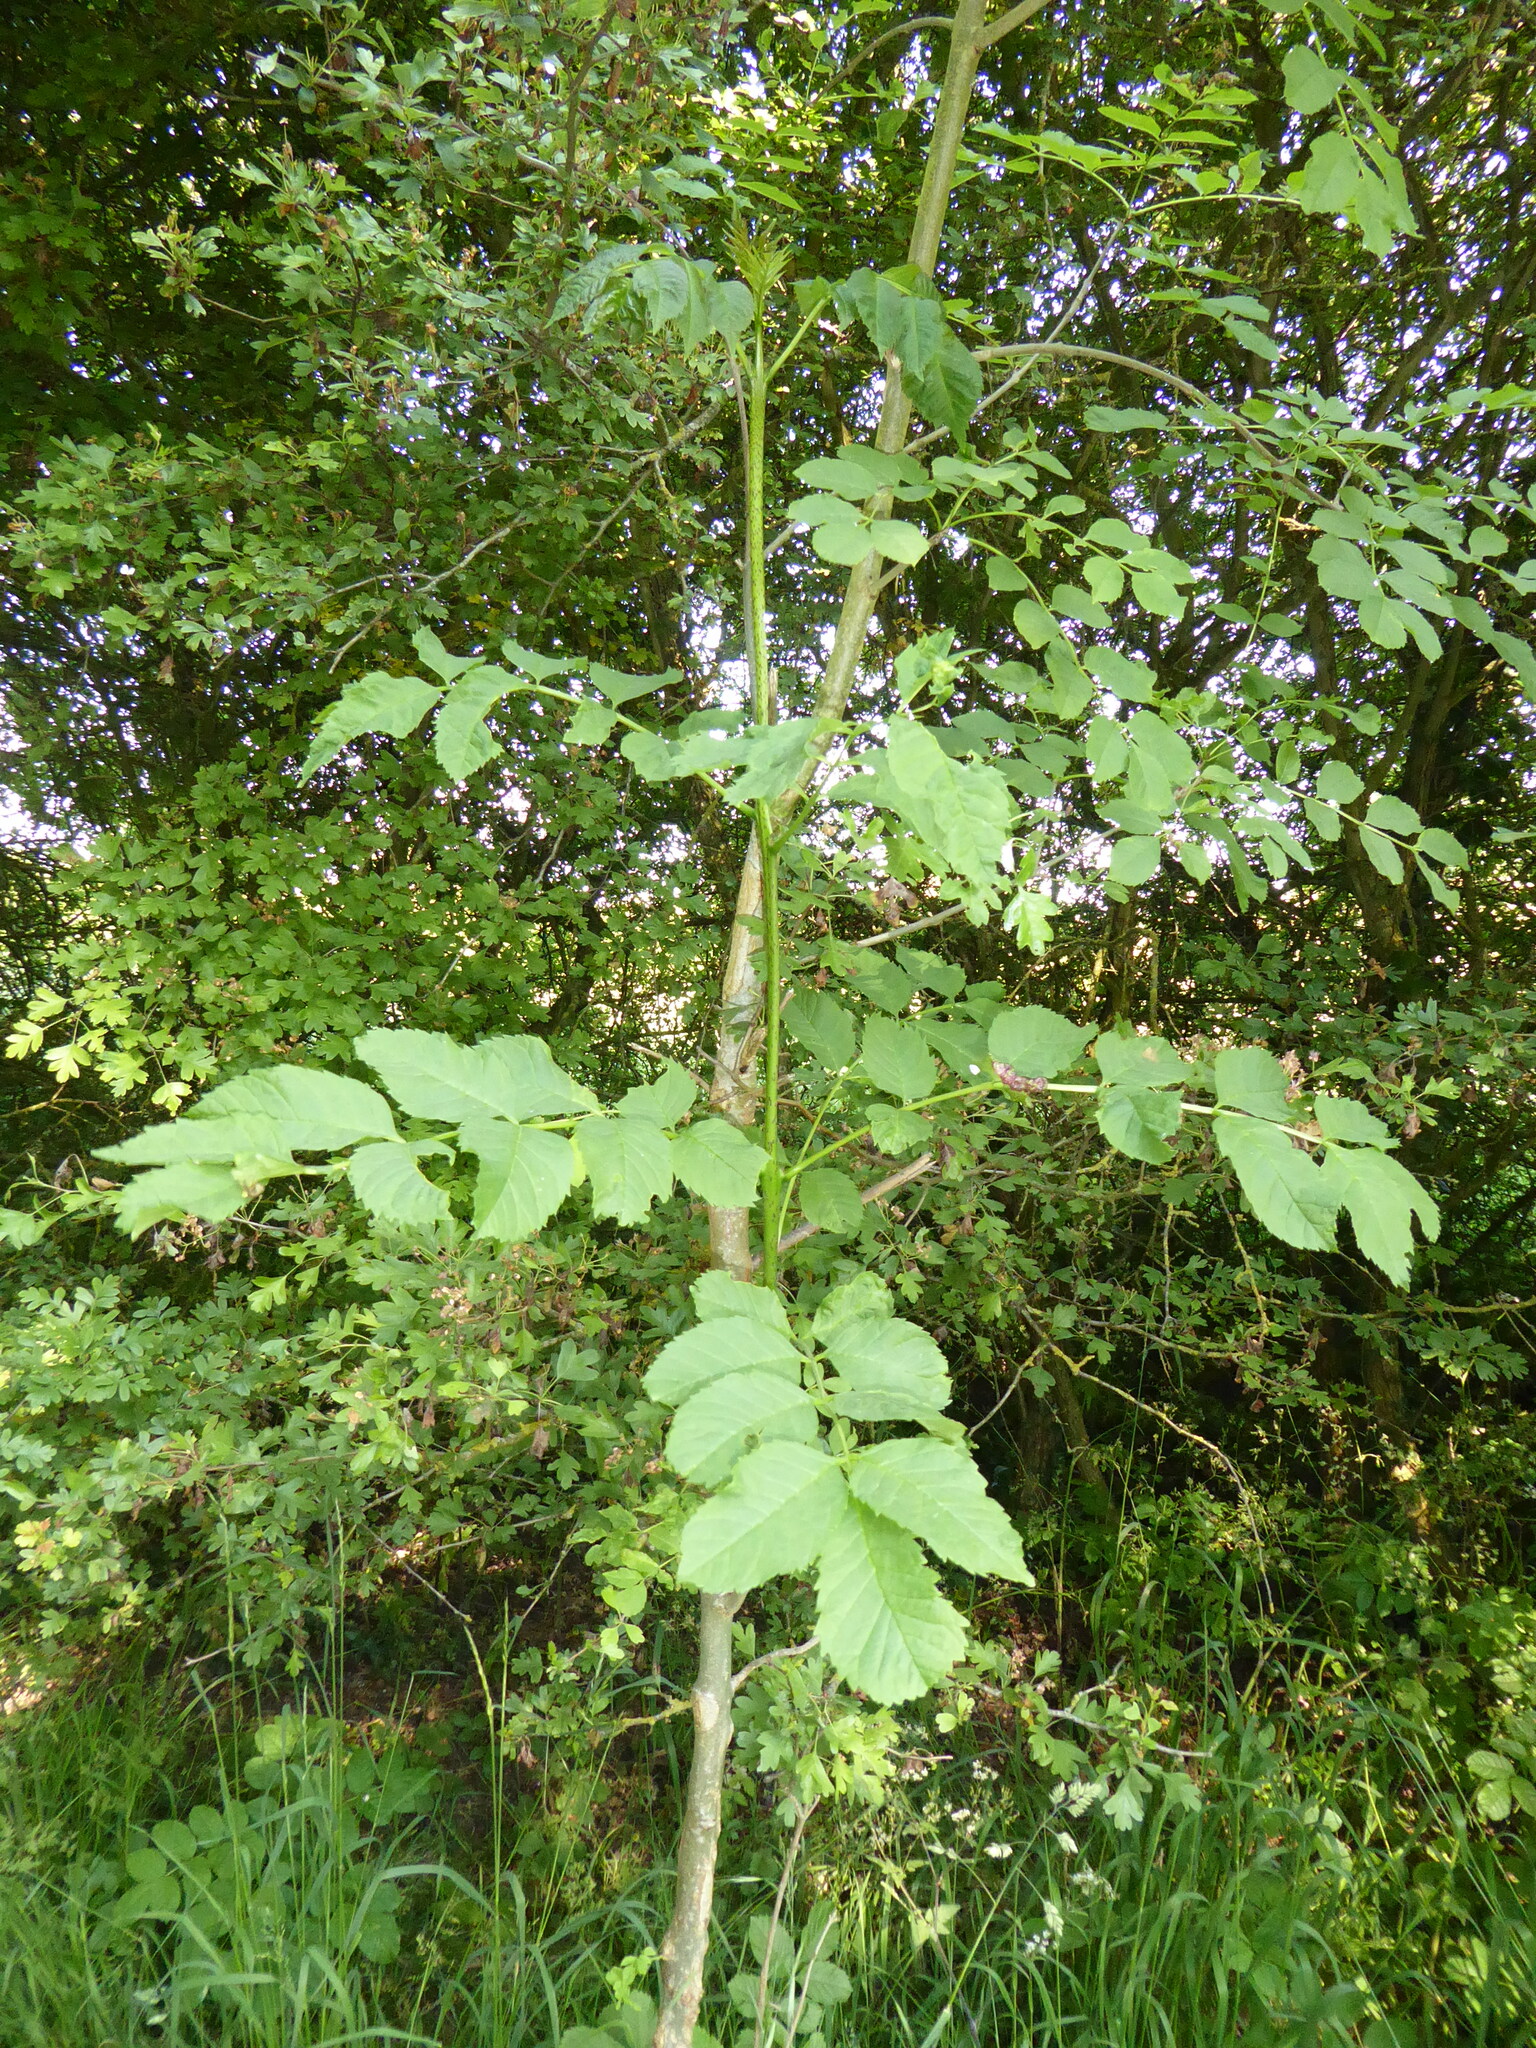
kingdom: Plantae
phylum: Tracheophyta
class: Magnoliopsida
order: Lamiales
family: Oleaceae
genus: Fraxinus
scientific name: Fraxinus excelsior
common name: European ash
